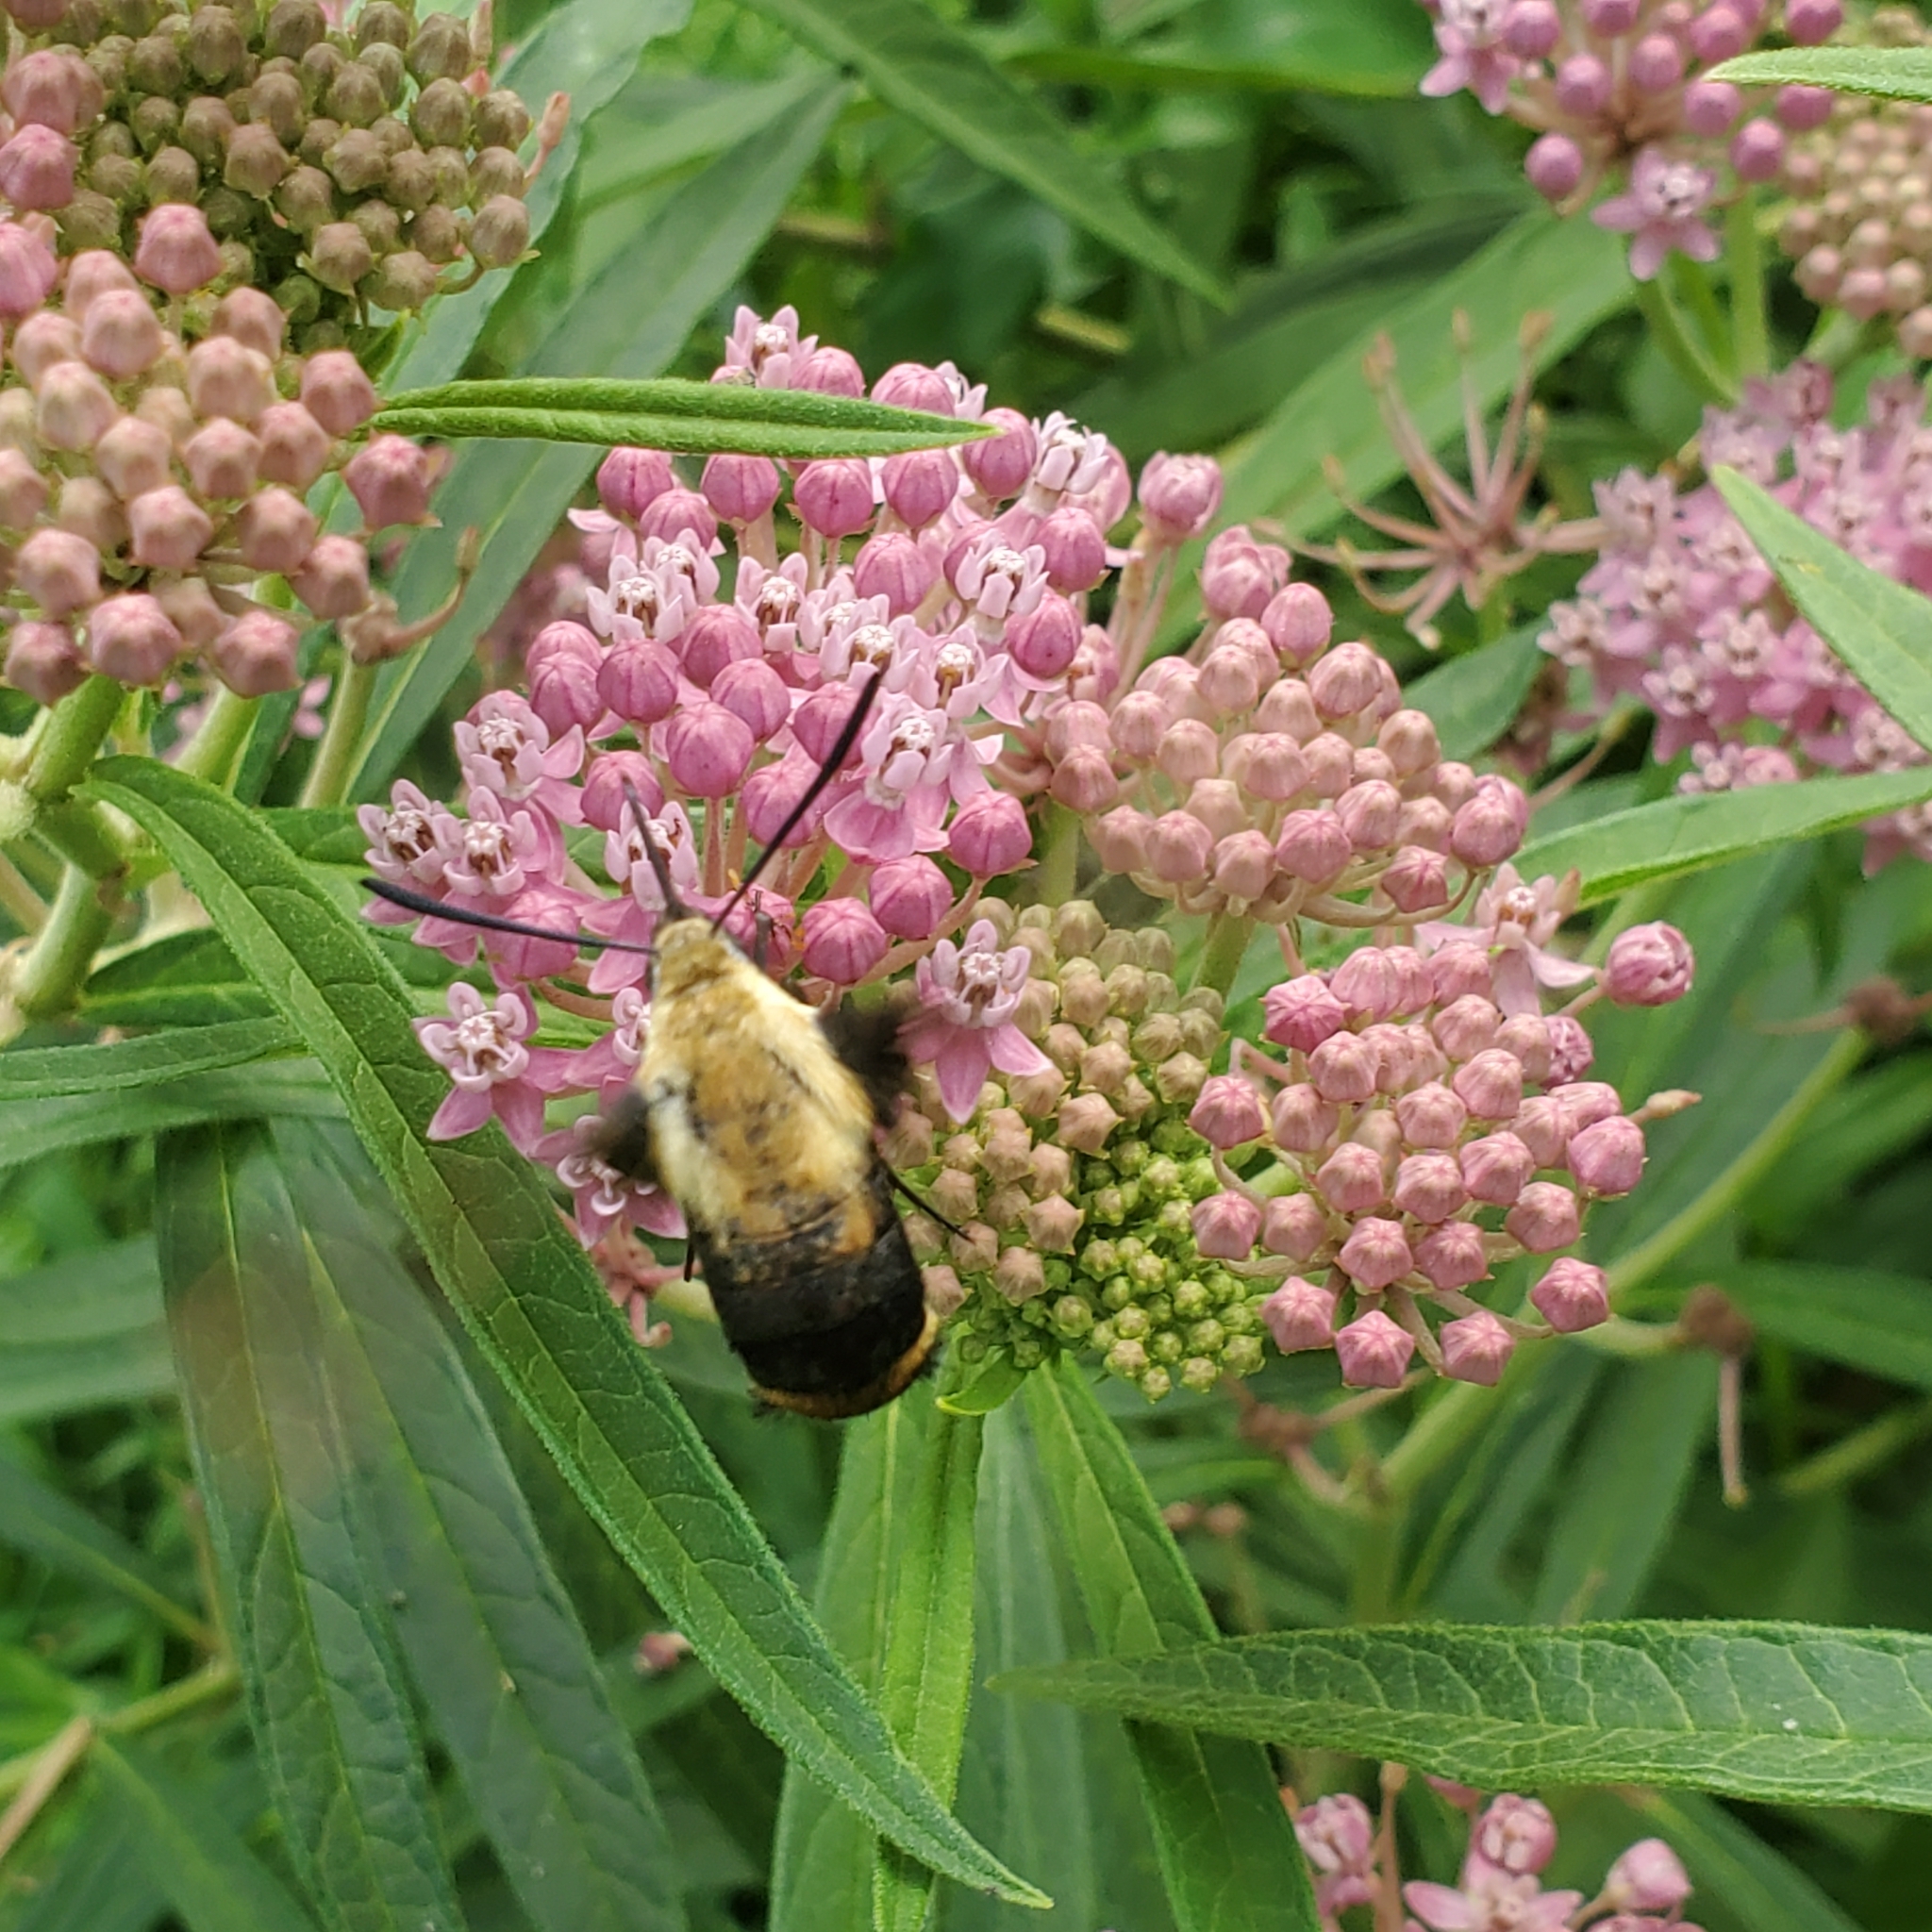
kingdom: Animalia
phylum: Arthropoda
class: Insecta
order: Lepidoptera
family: Sphingidae
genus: Hemaris
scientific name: Hemaris diffinis
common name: Bumblebee moth
